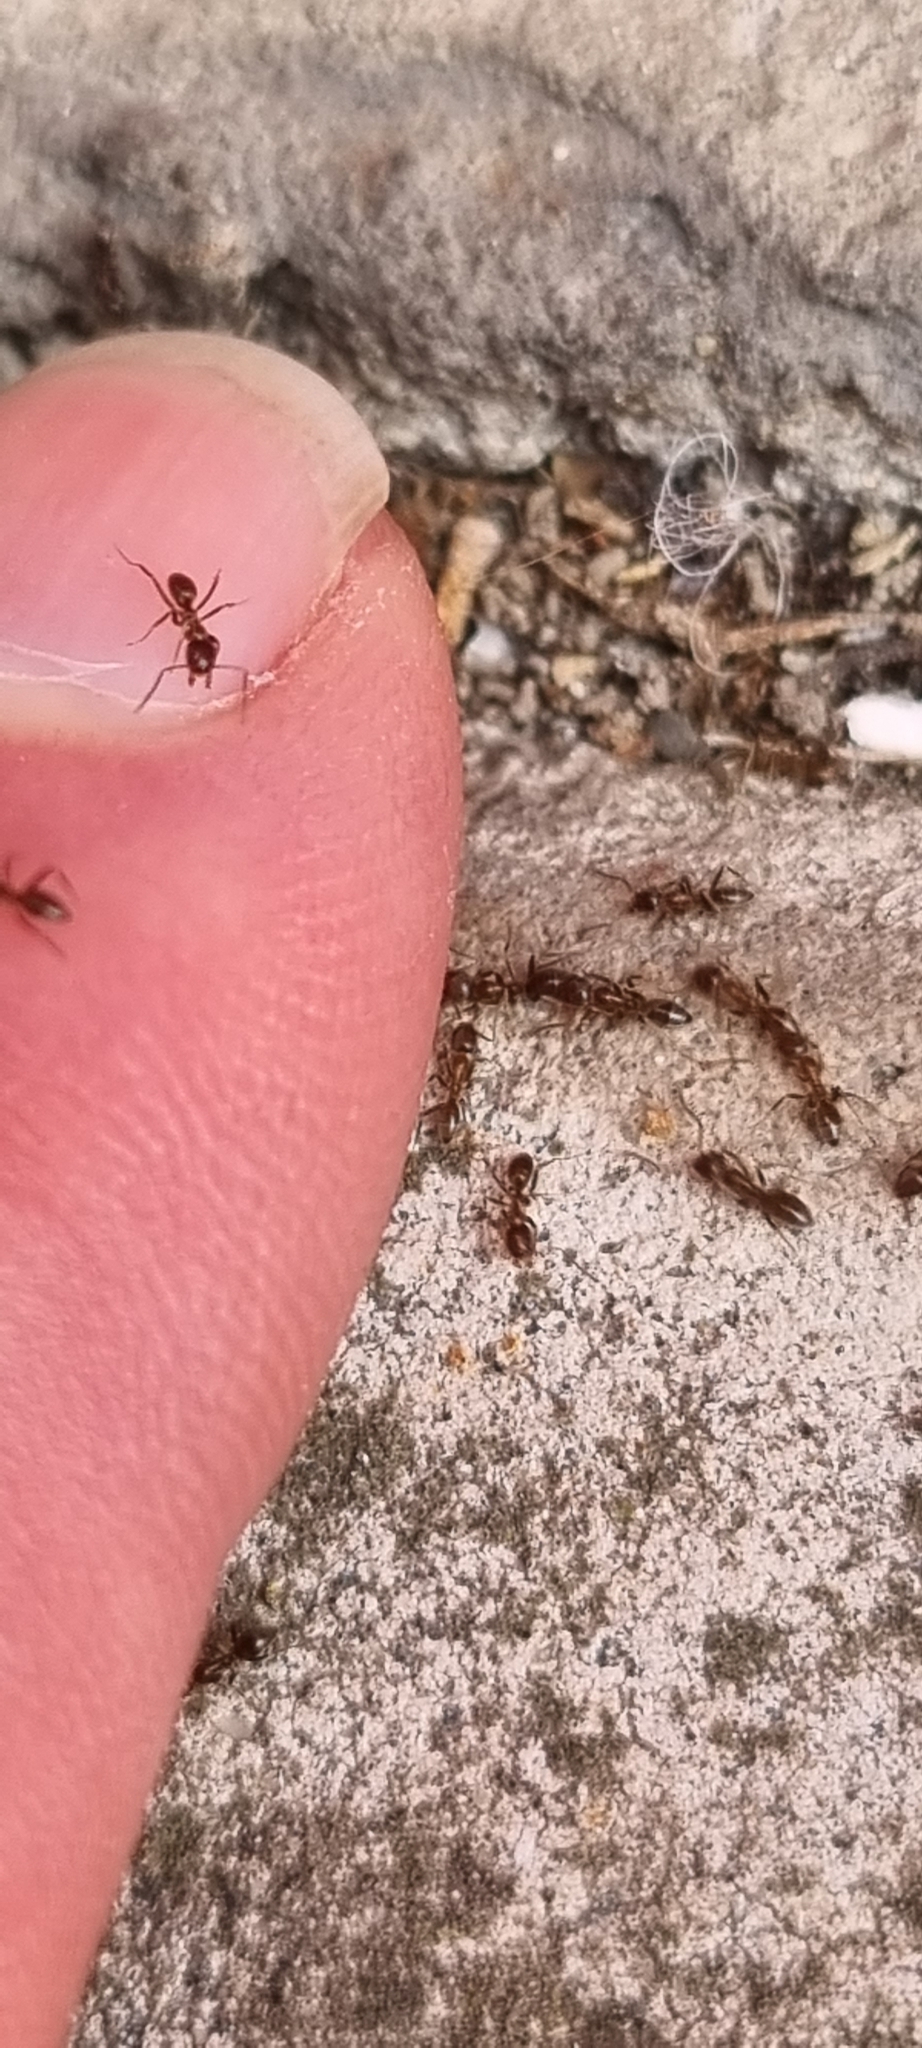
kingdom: Animalia
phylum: Arthropoda
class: Insecta
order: Hymenoptera
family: Formicidae
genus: Linepithema
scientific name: Linepithema humile
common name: Argentine ant
